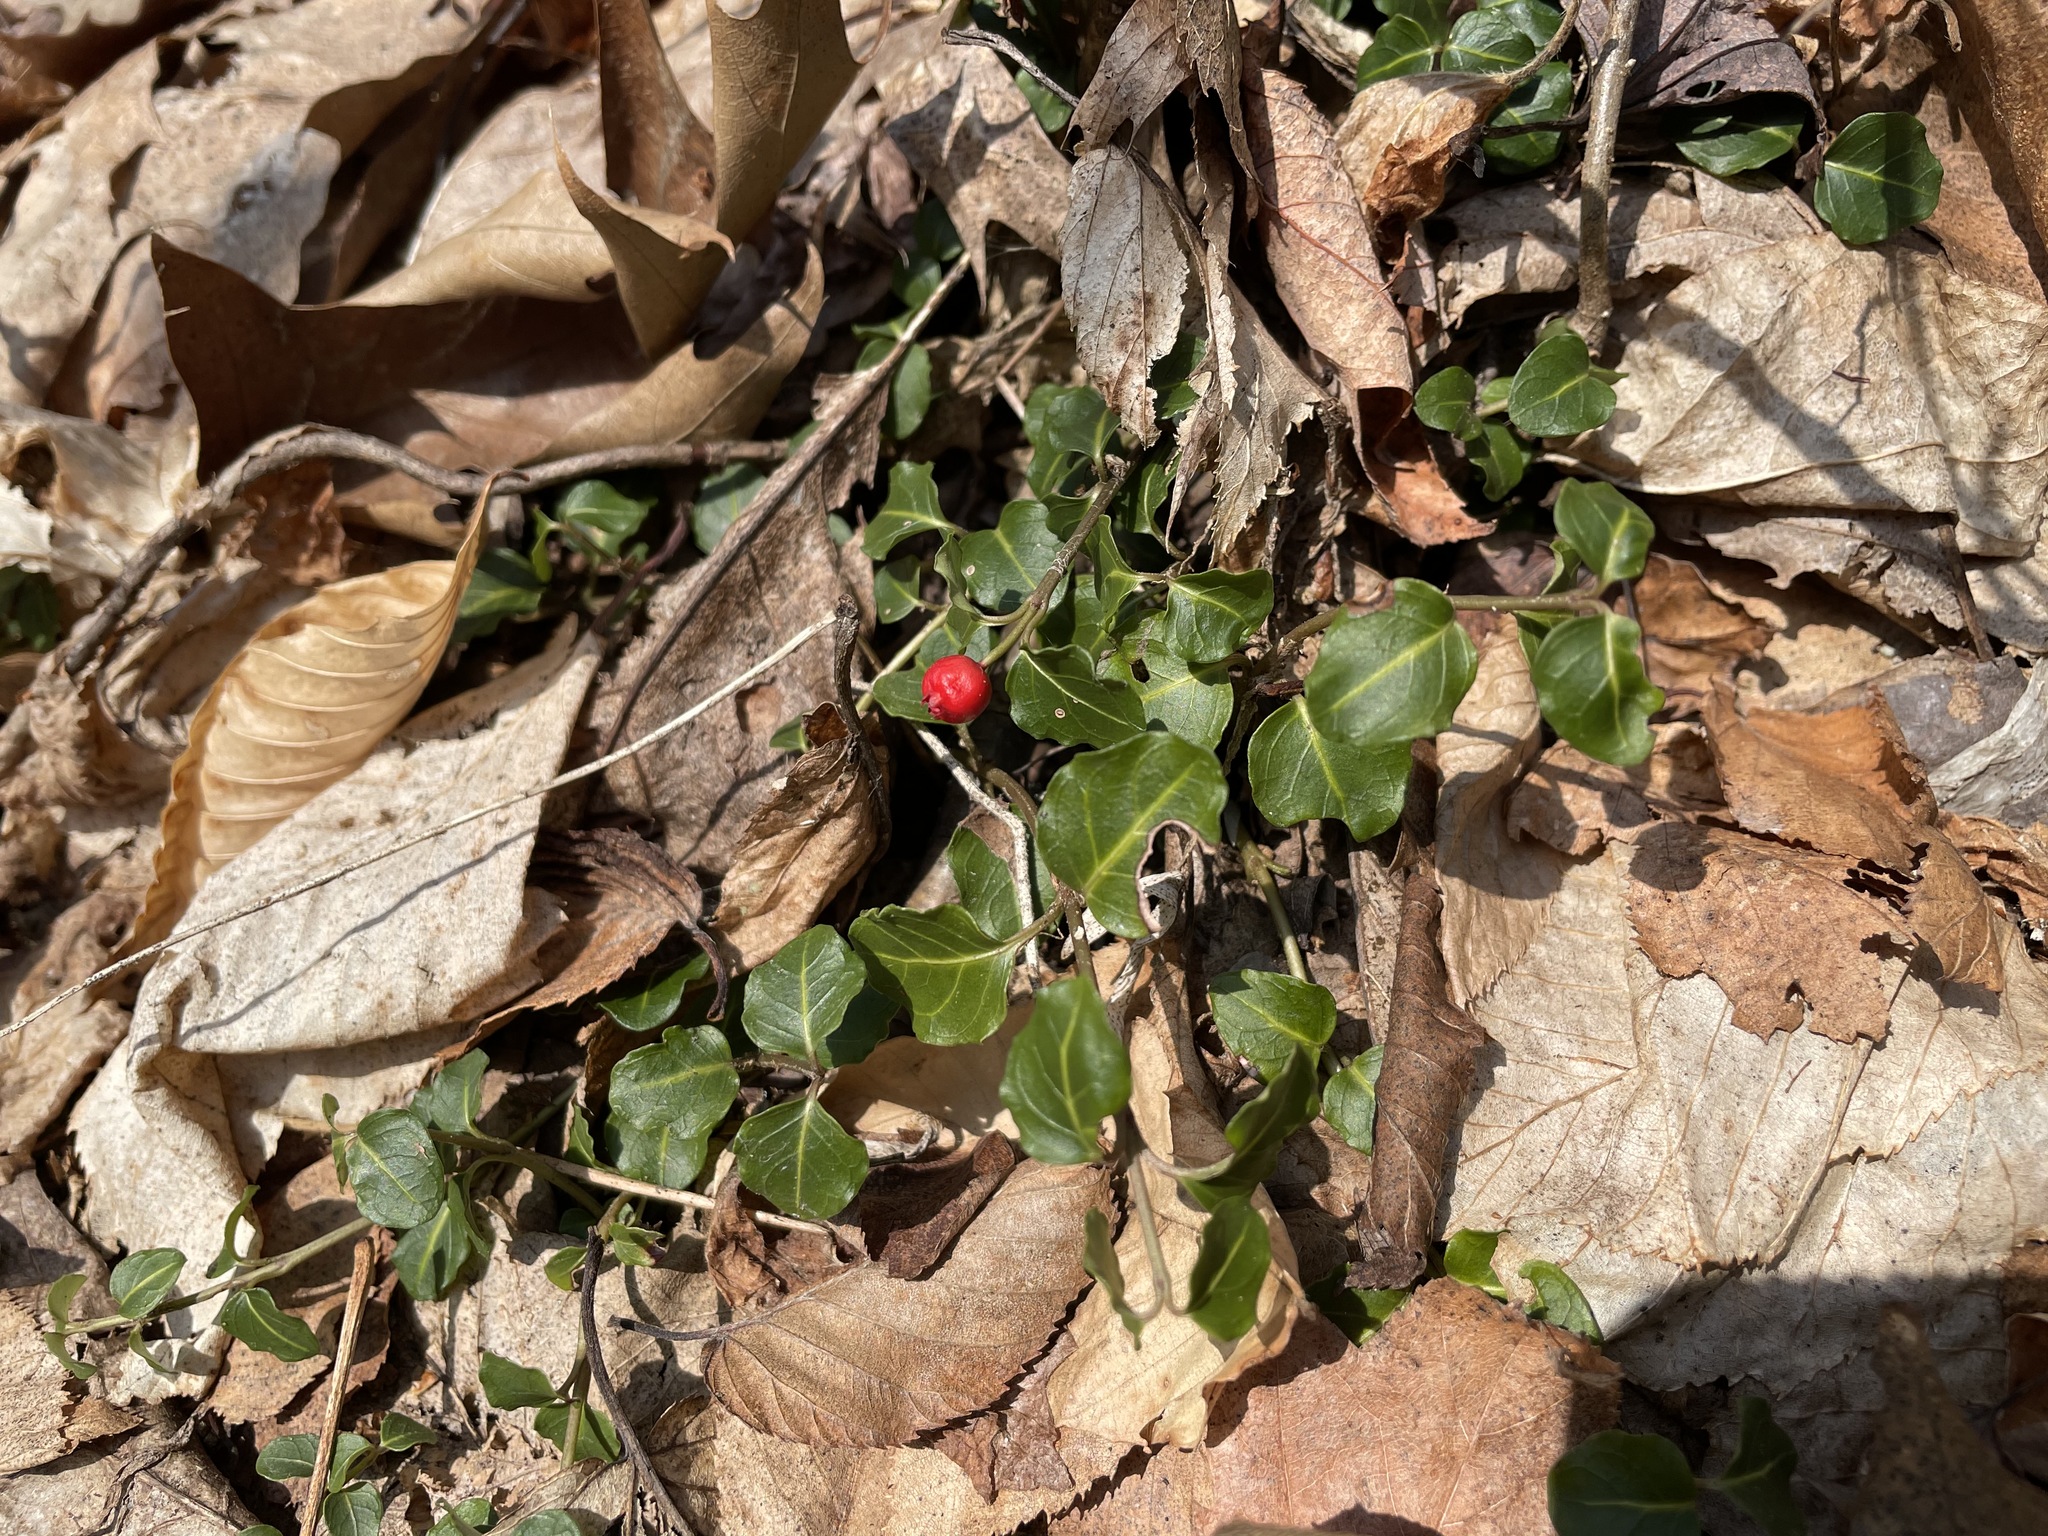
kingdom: Plantae
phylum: Tracheophyta
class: Magnoliopsida
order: Gentianales
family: Rubiaceae
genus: Mitchella
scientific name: Mitchella repens
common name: Partridge-berry
